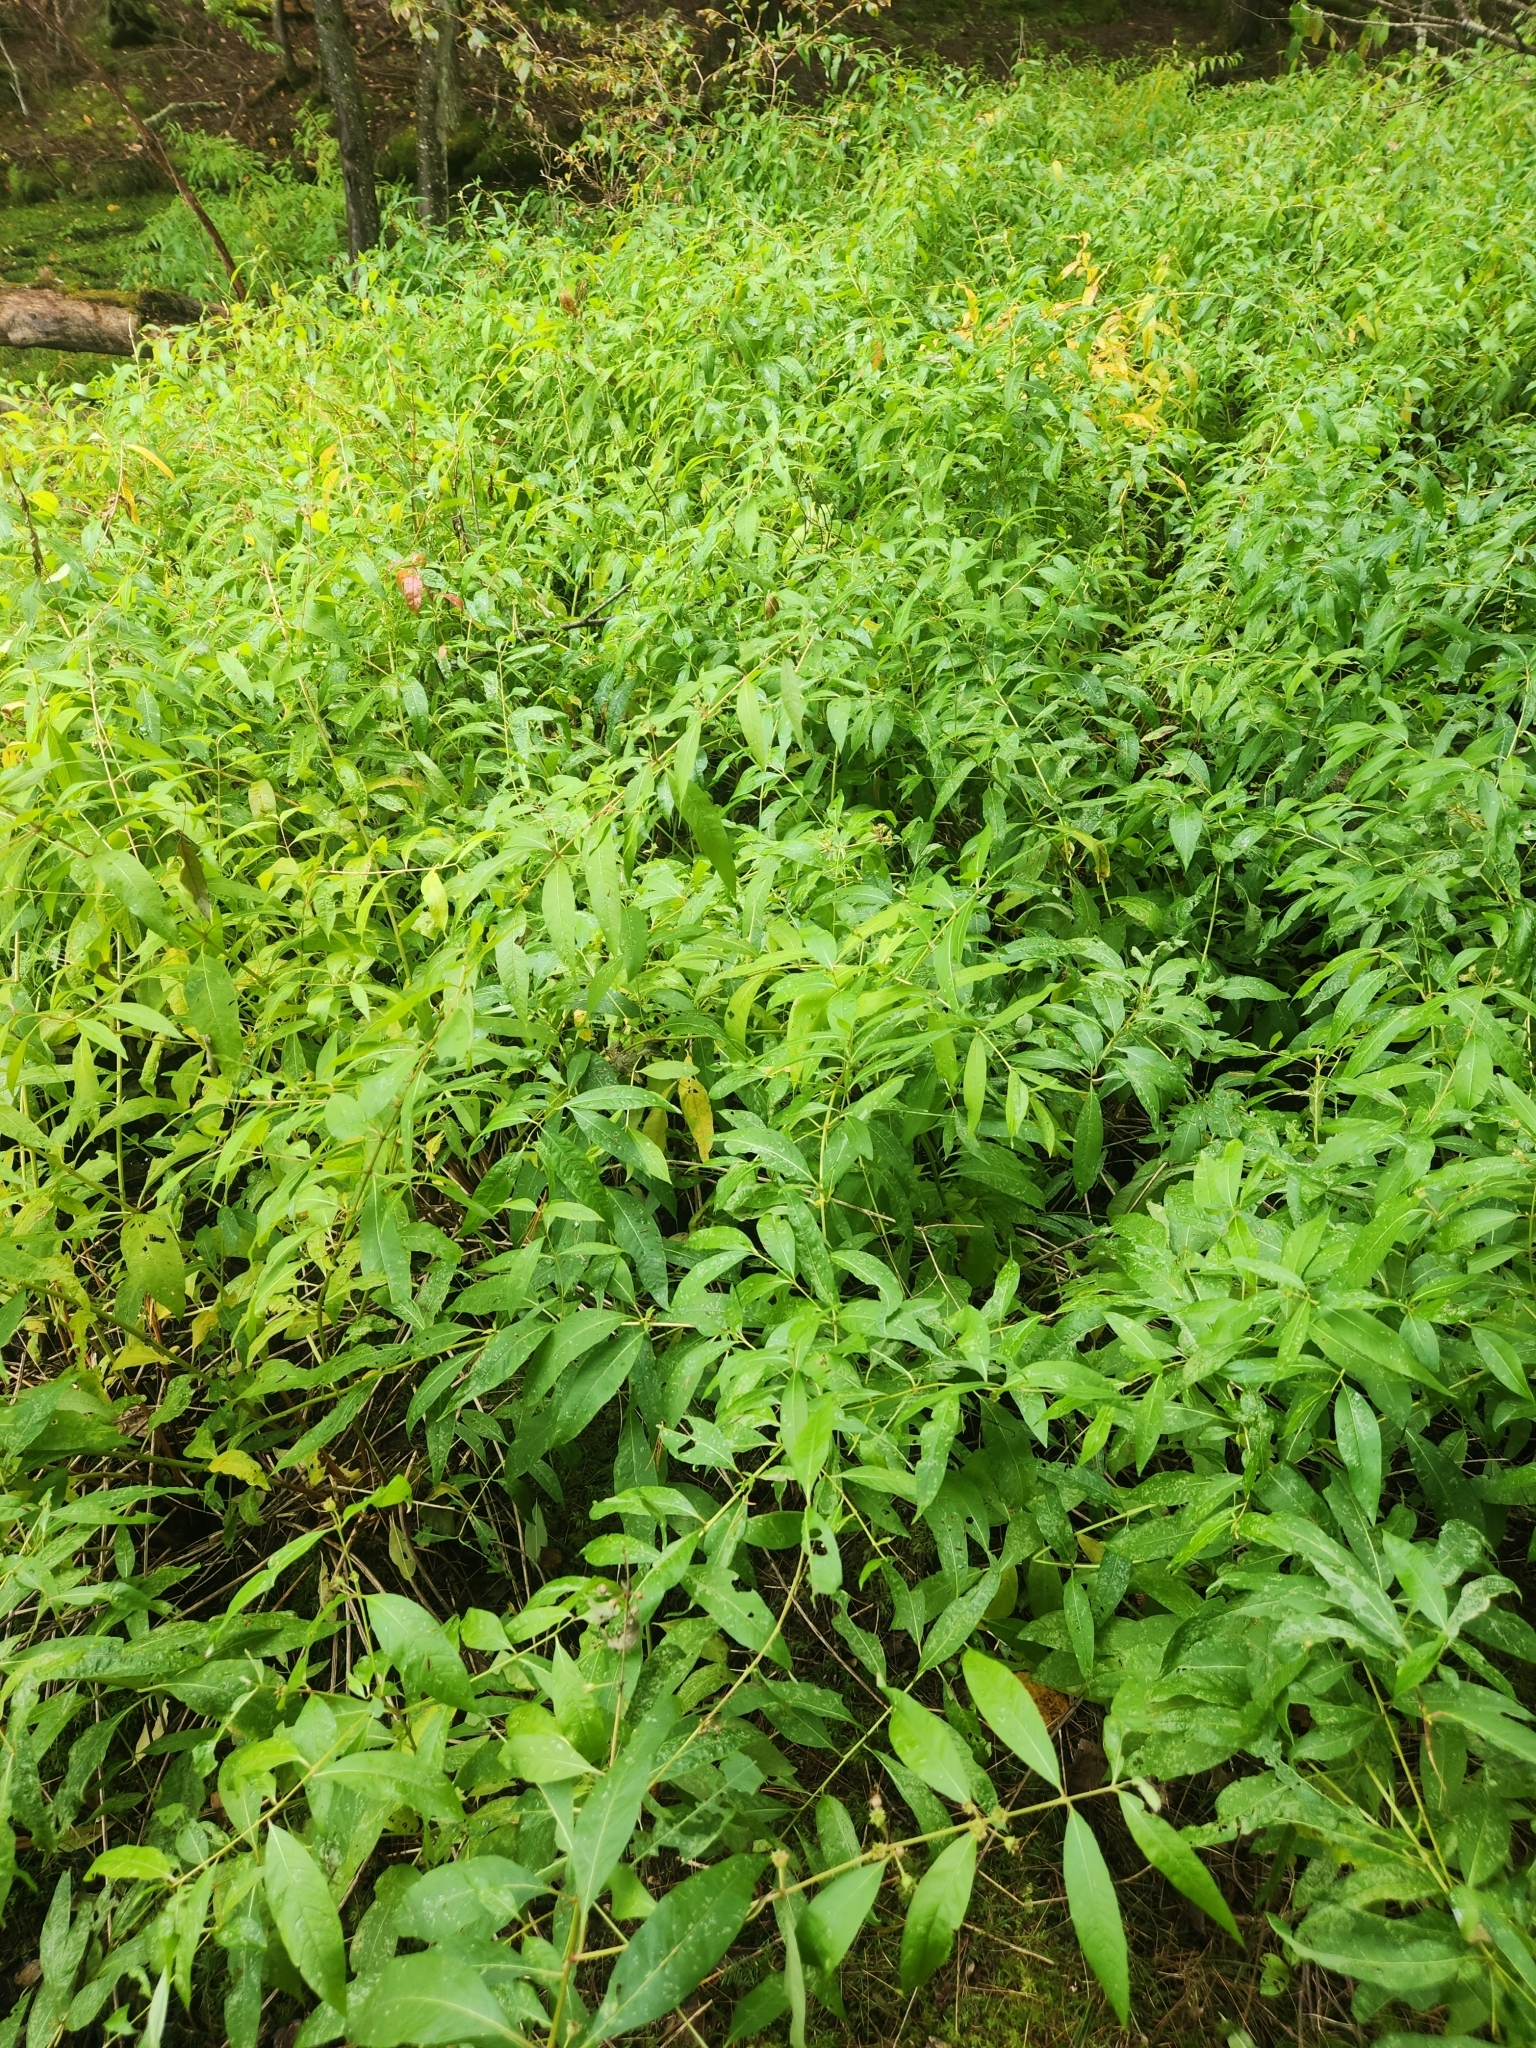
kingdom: Plantae
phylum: Tracheophyta
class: Magnoliopsida
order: Myrtales
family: Lythraceae
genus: Decodon
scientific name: Decodon verticillatus
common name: Hairy swamp loosestrife
